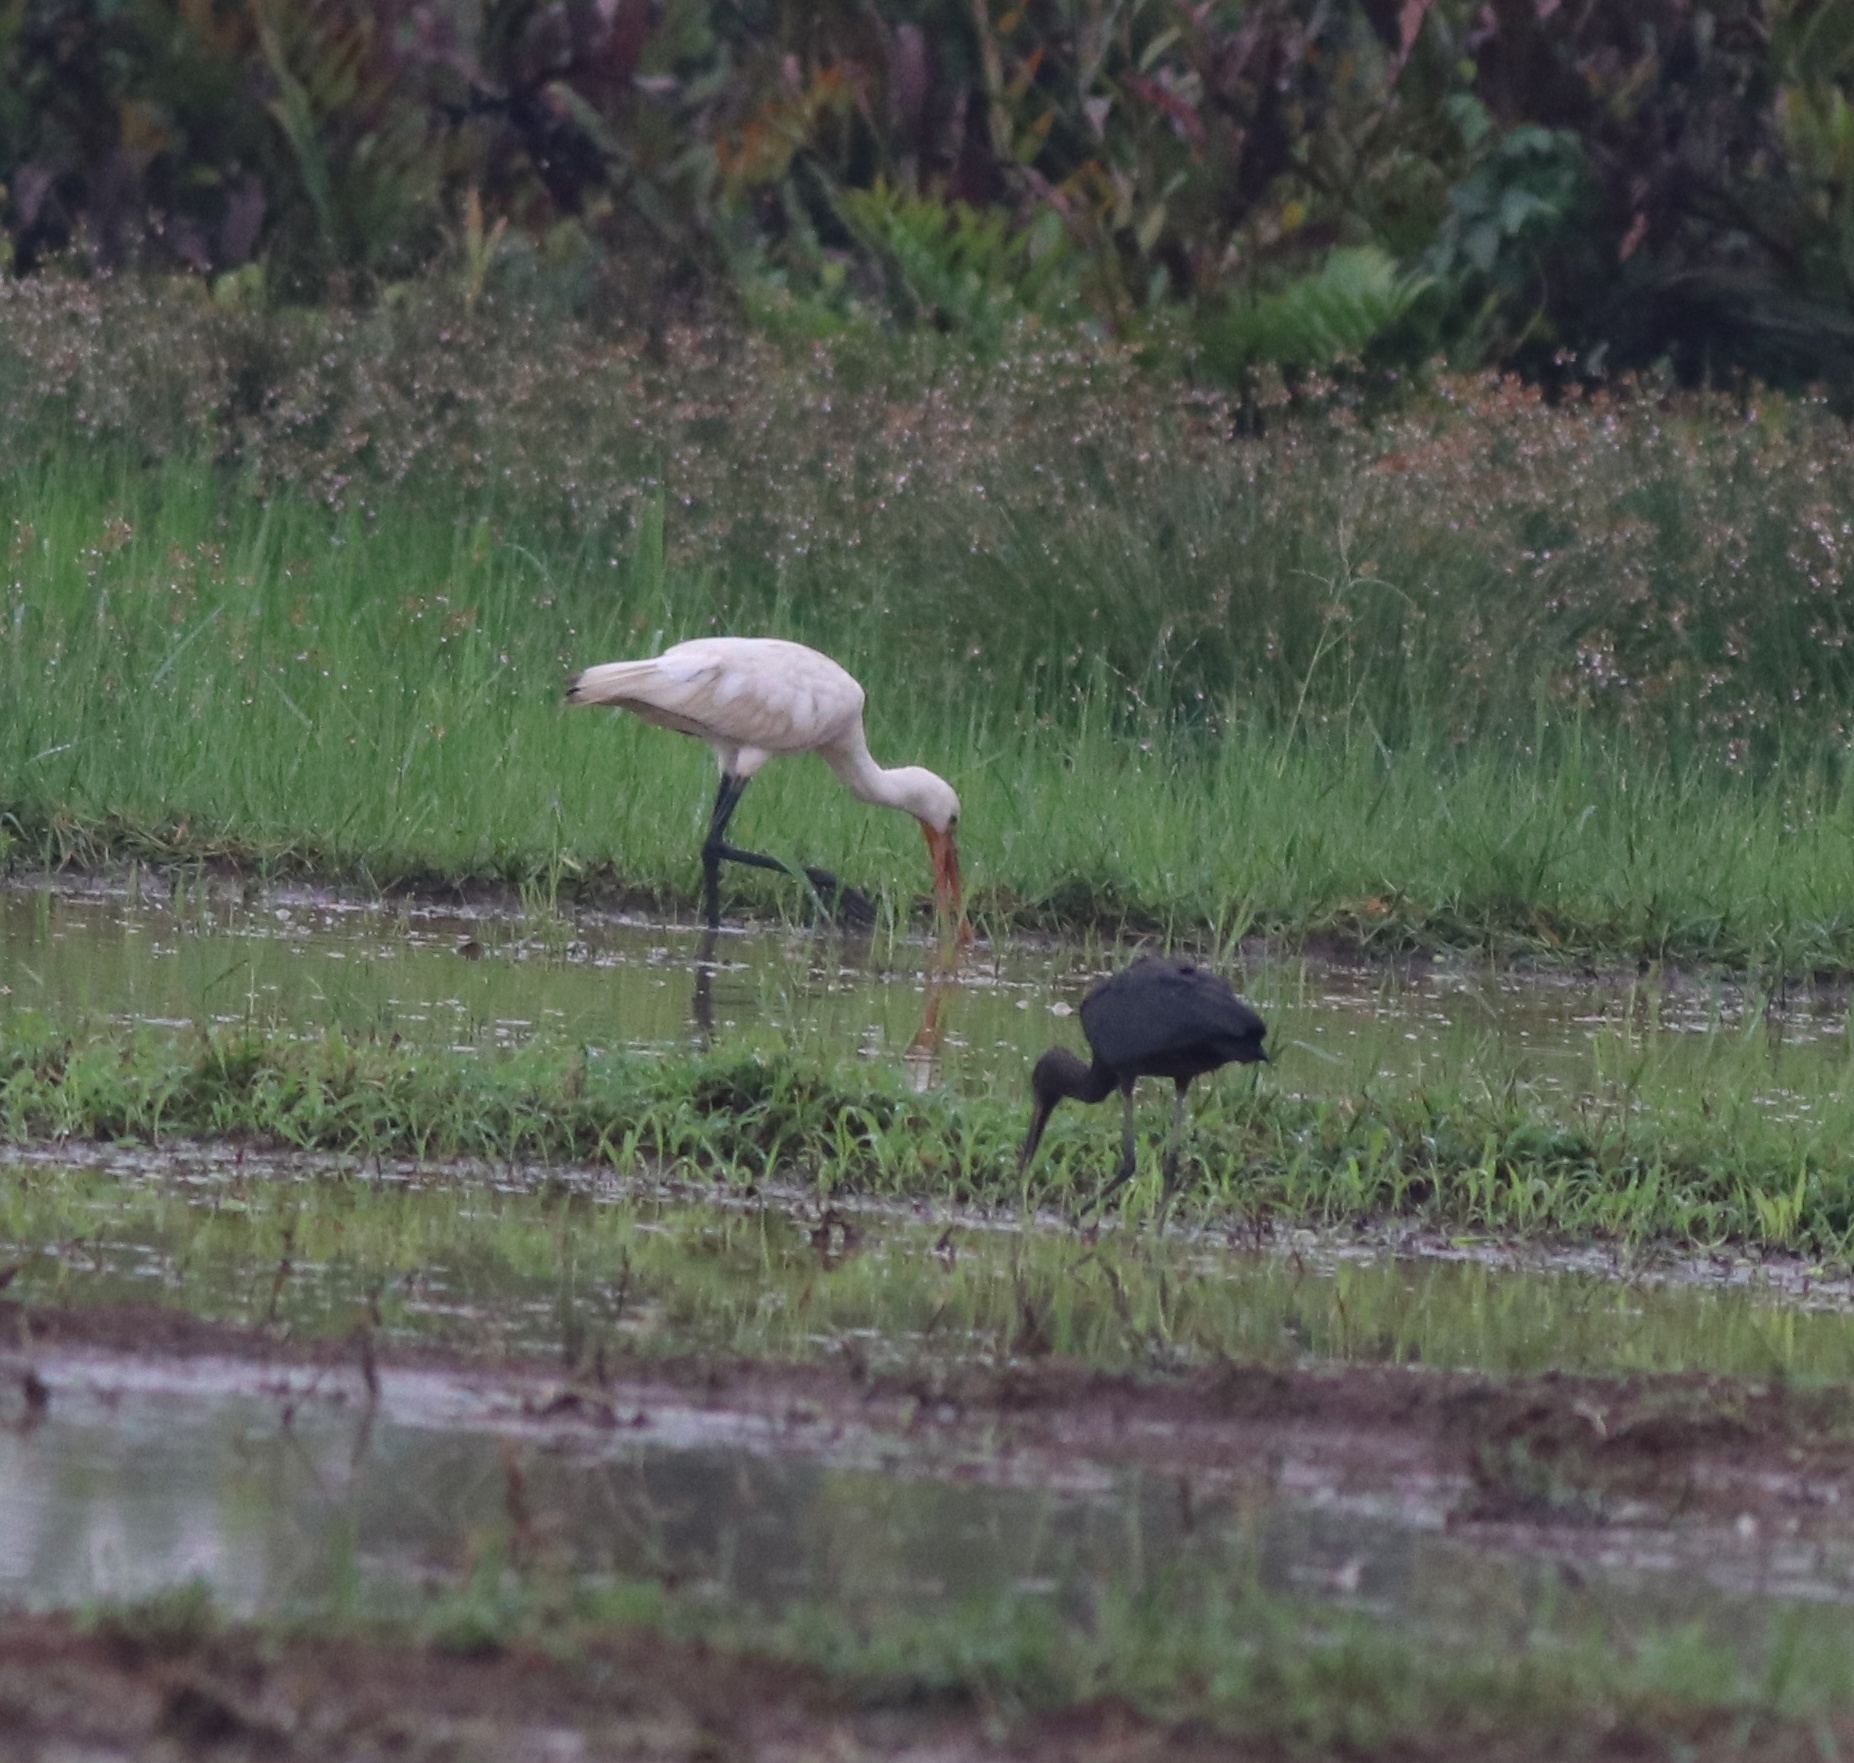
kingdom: Animalia
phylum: Chordata
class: Aves
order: Pelecaniformes
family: Threskiornithidae
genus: Plegadis
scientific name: Plegadis falcinellus
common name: Glossy ibis
